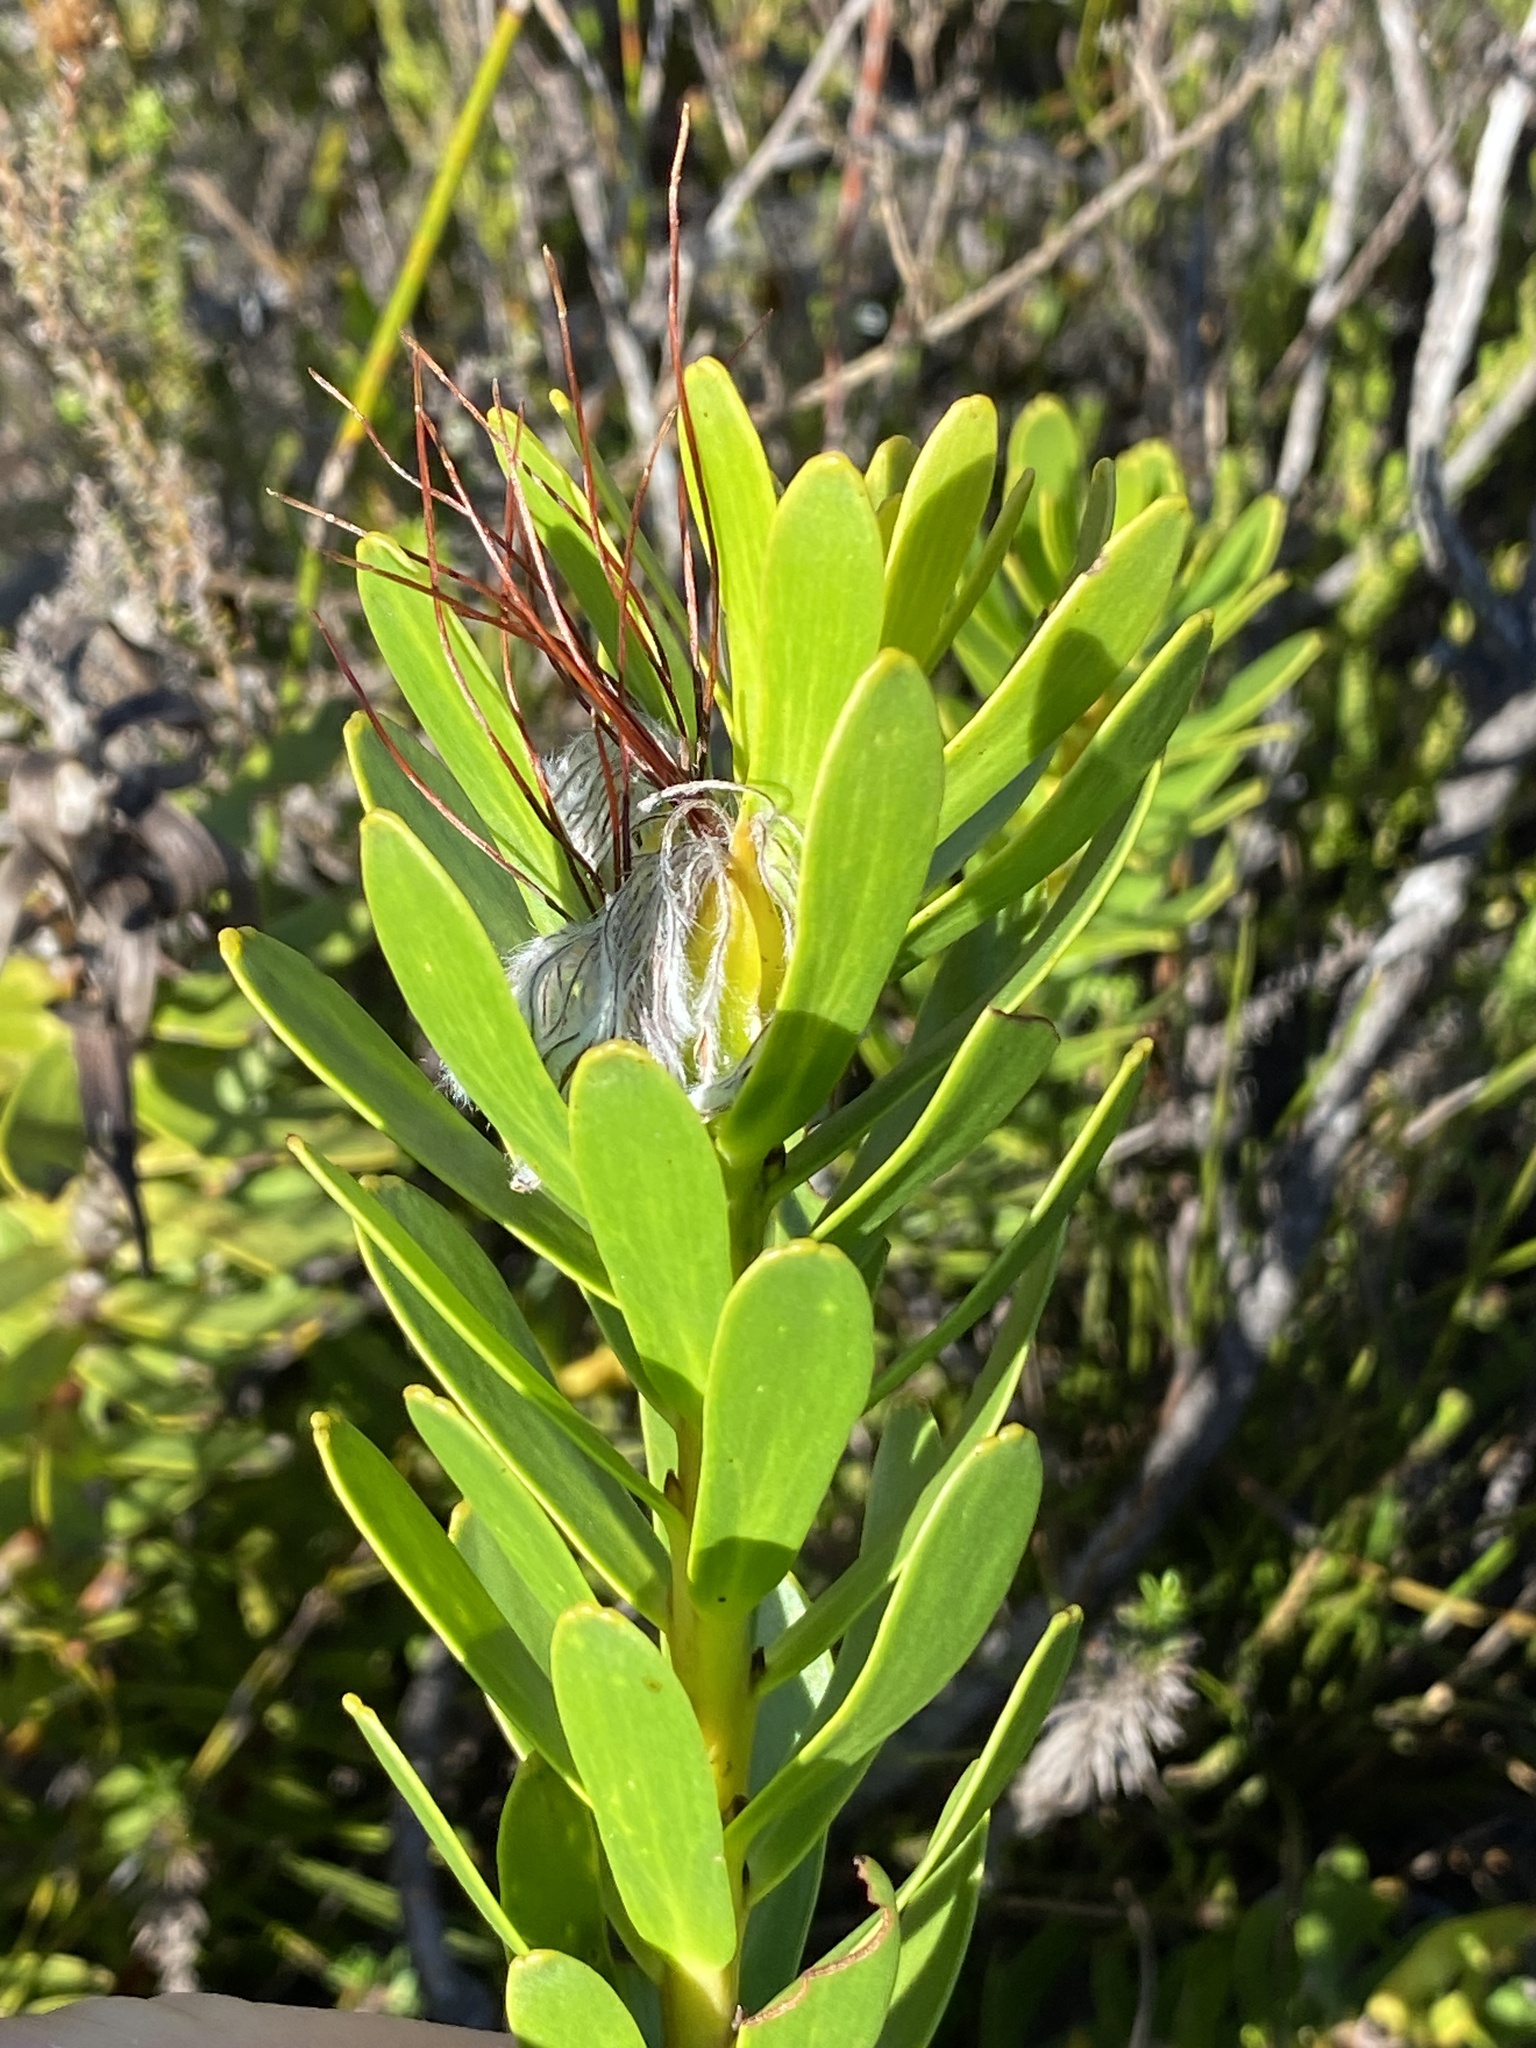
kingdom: Plantae
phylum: Tracheophyta
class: Magnoliopsida
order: Proteales
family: Proteaceae
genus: Mimetes
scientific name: Mimetes cucullatus
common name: Common pagoda
